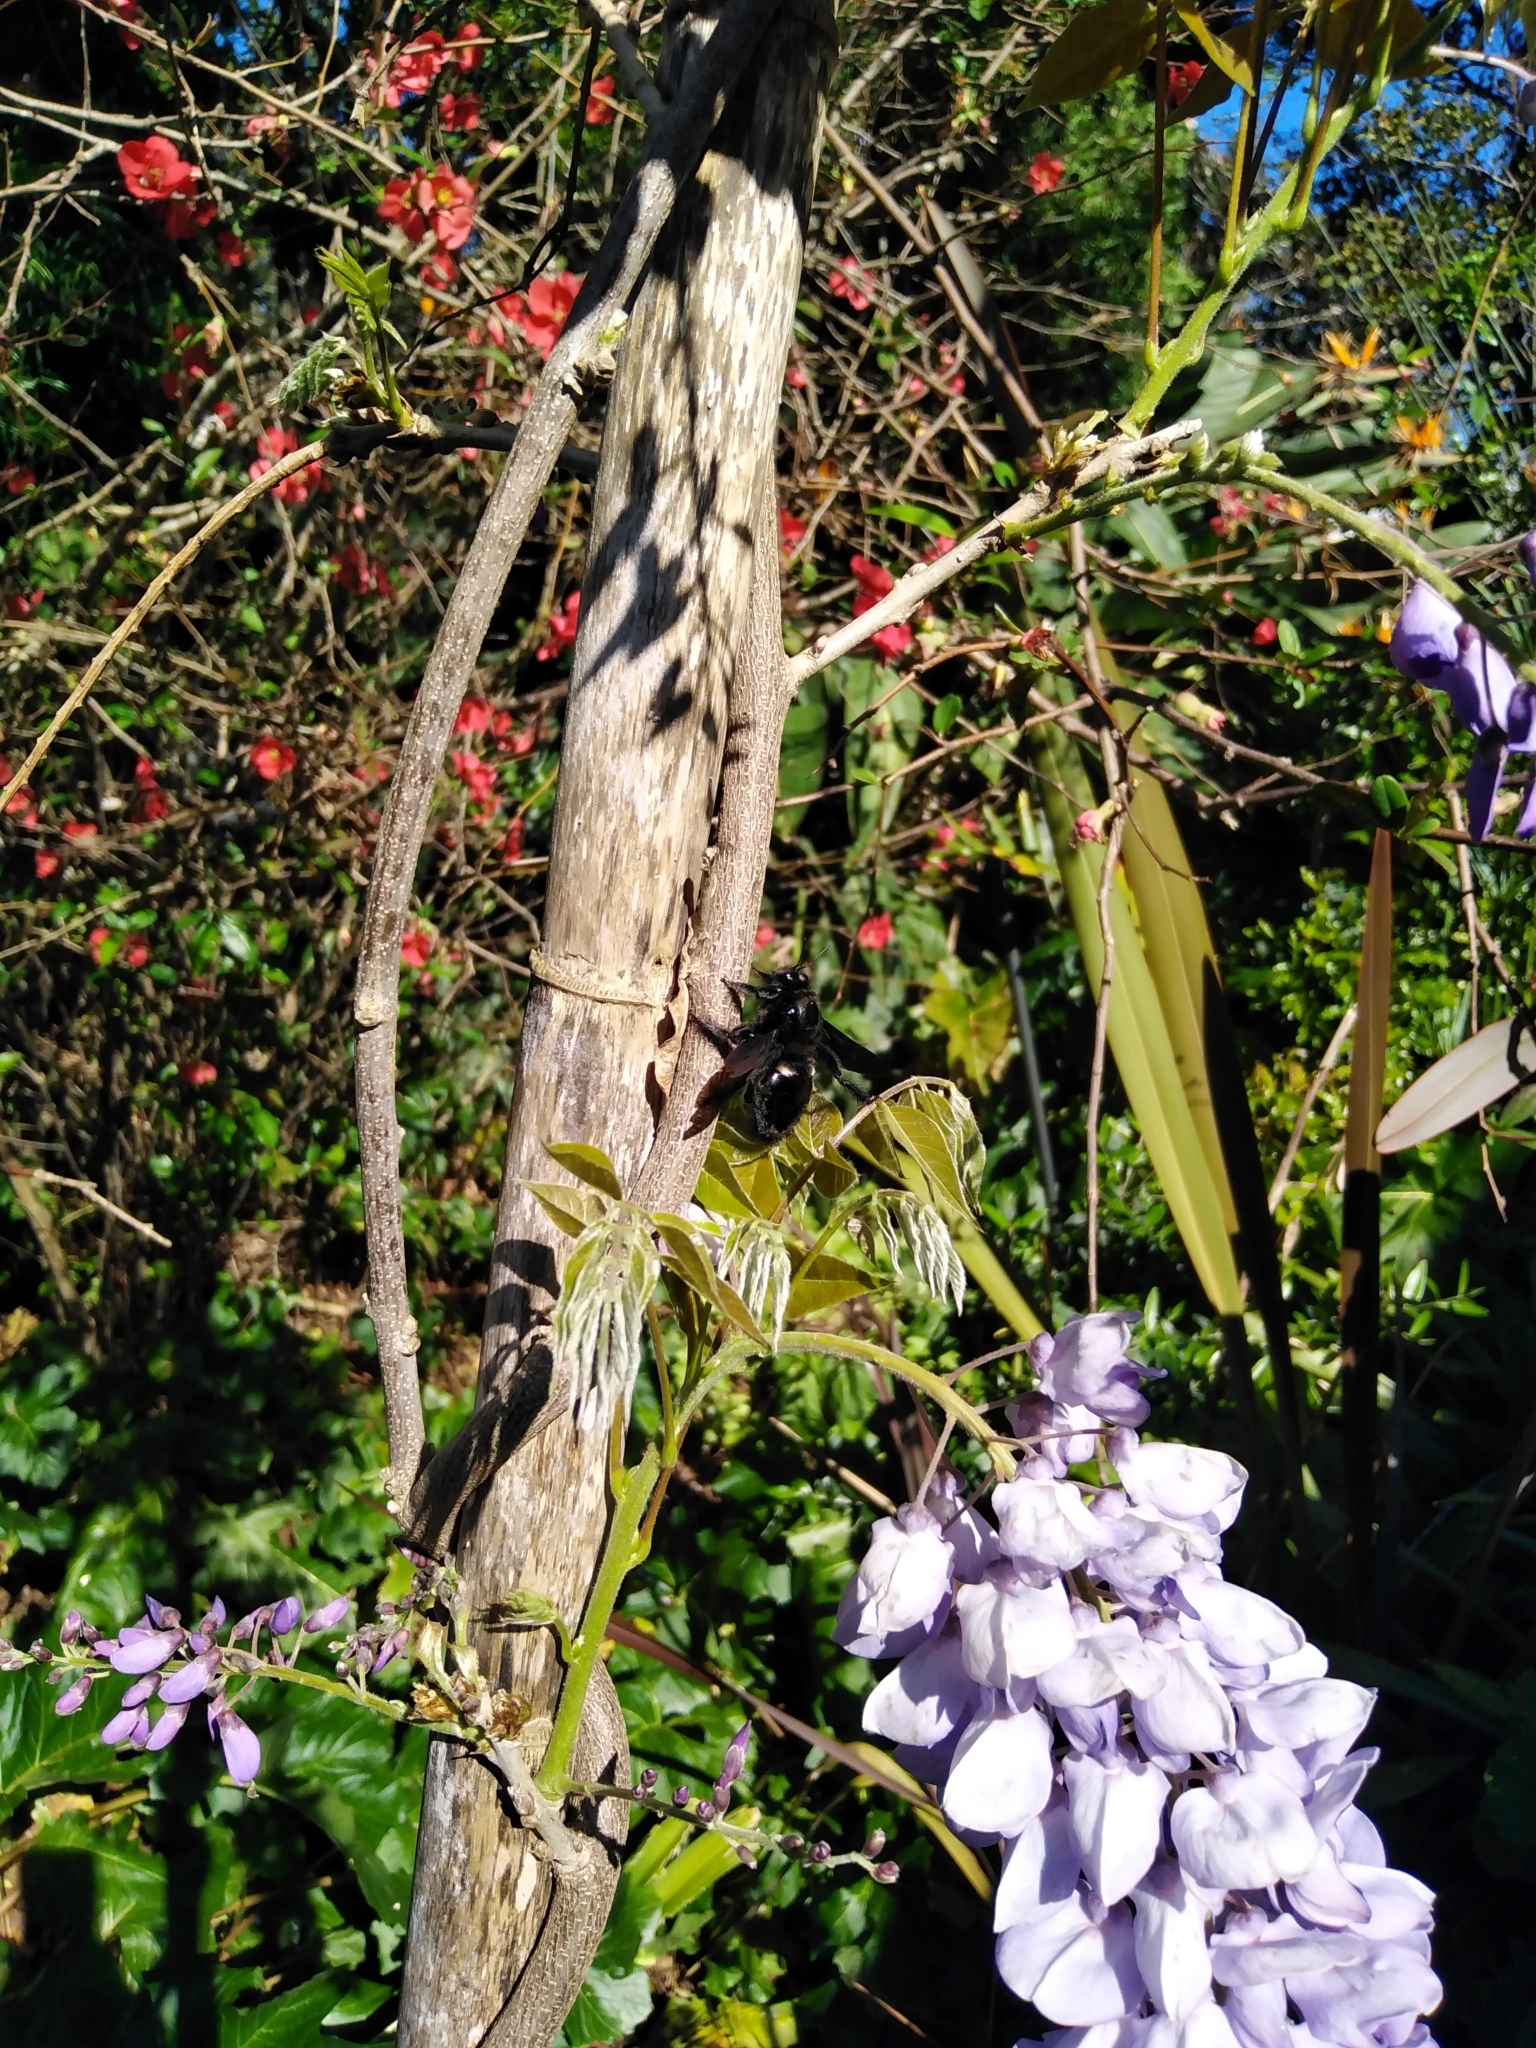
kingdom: Animalia
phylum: Arthropoda
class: Insecta
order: Hymenoptera
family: Apidae
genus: Xylocopa
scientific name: Xylocopa capitata
